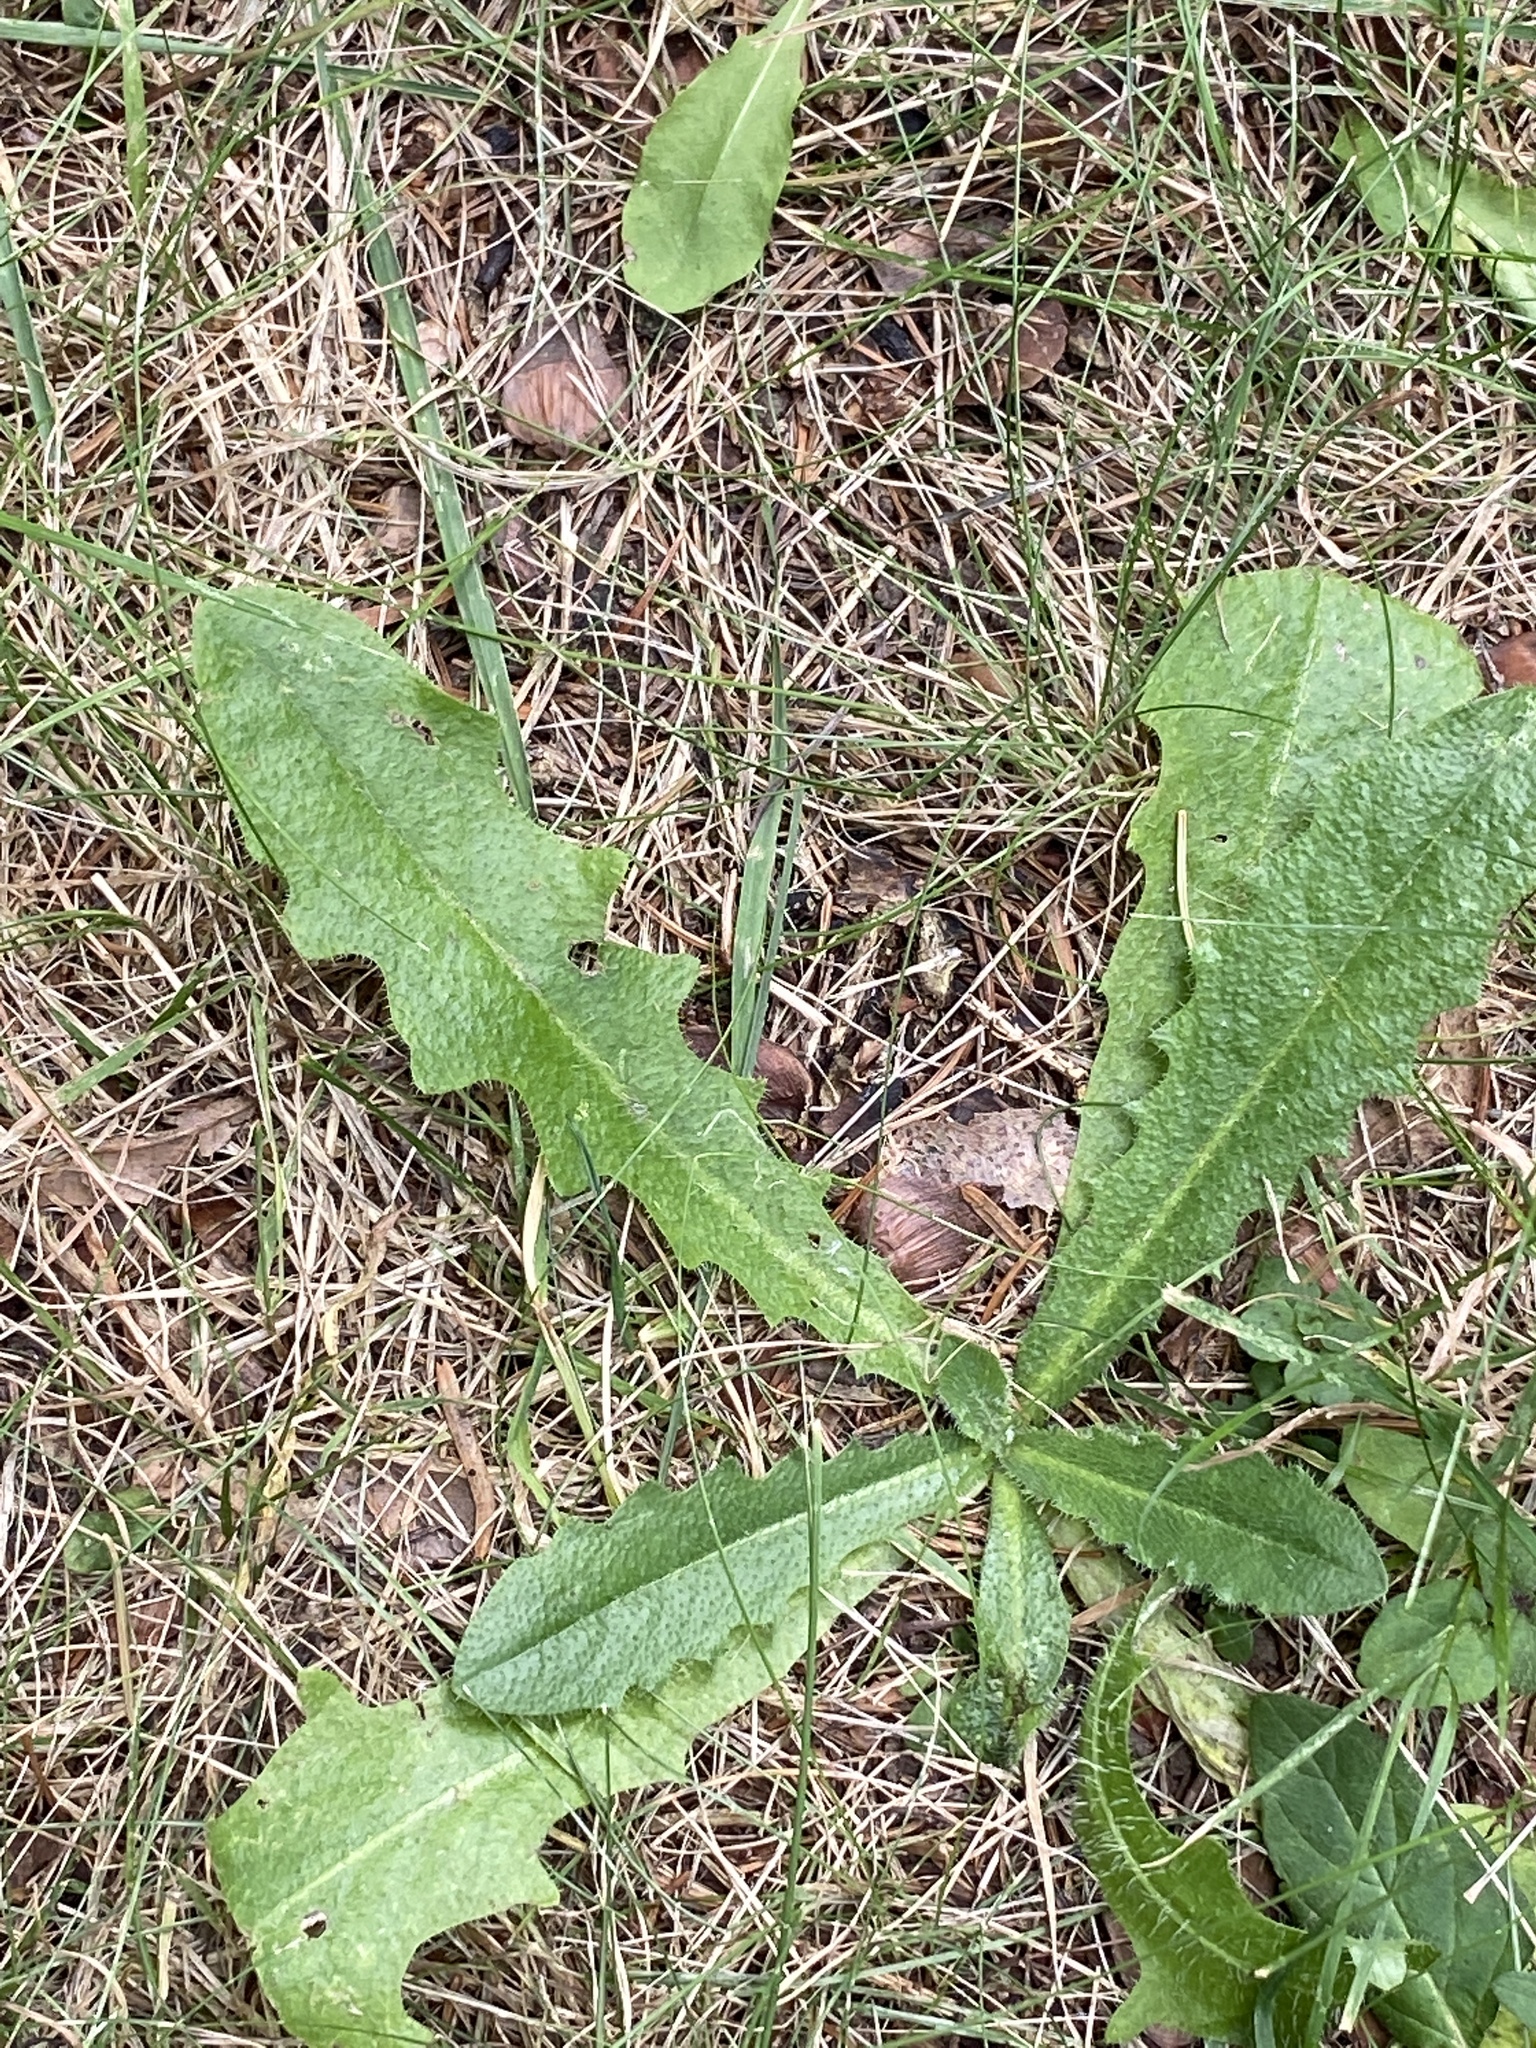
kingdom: Plantae
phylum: Tracheophyta
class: Magnoliopsida
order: Asterales
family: Asteraceae
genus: Hypochaeris
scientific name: Hypochaeris radicata
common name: Flatweed
